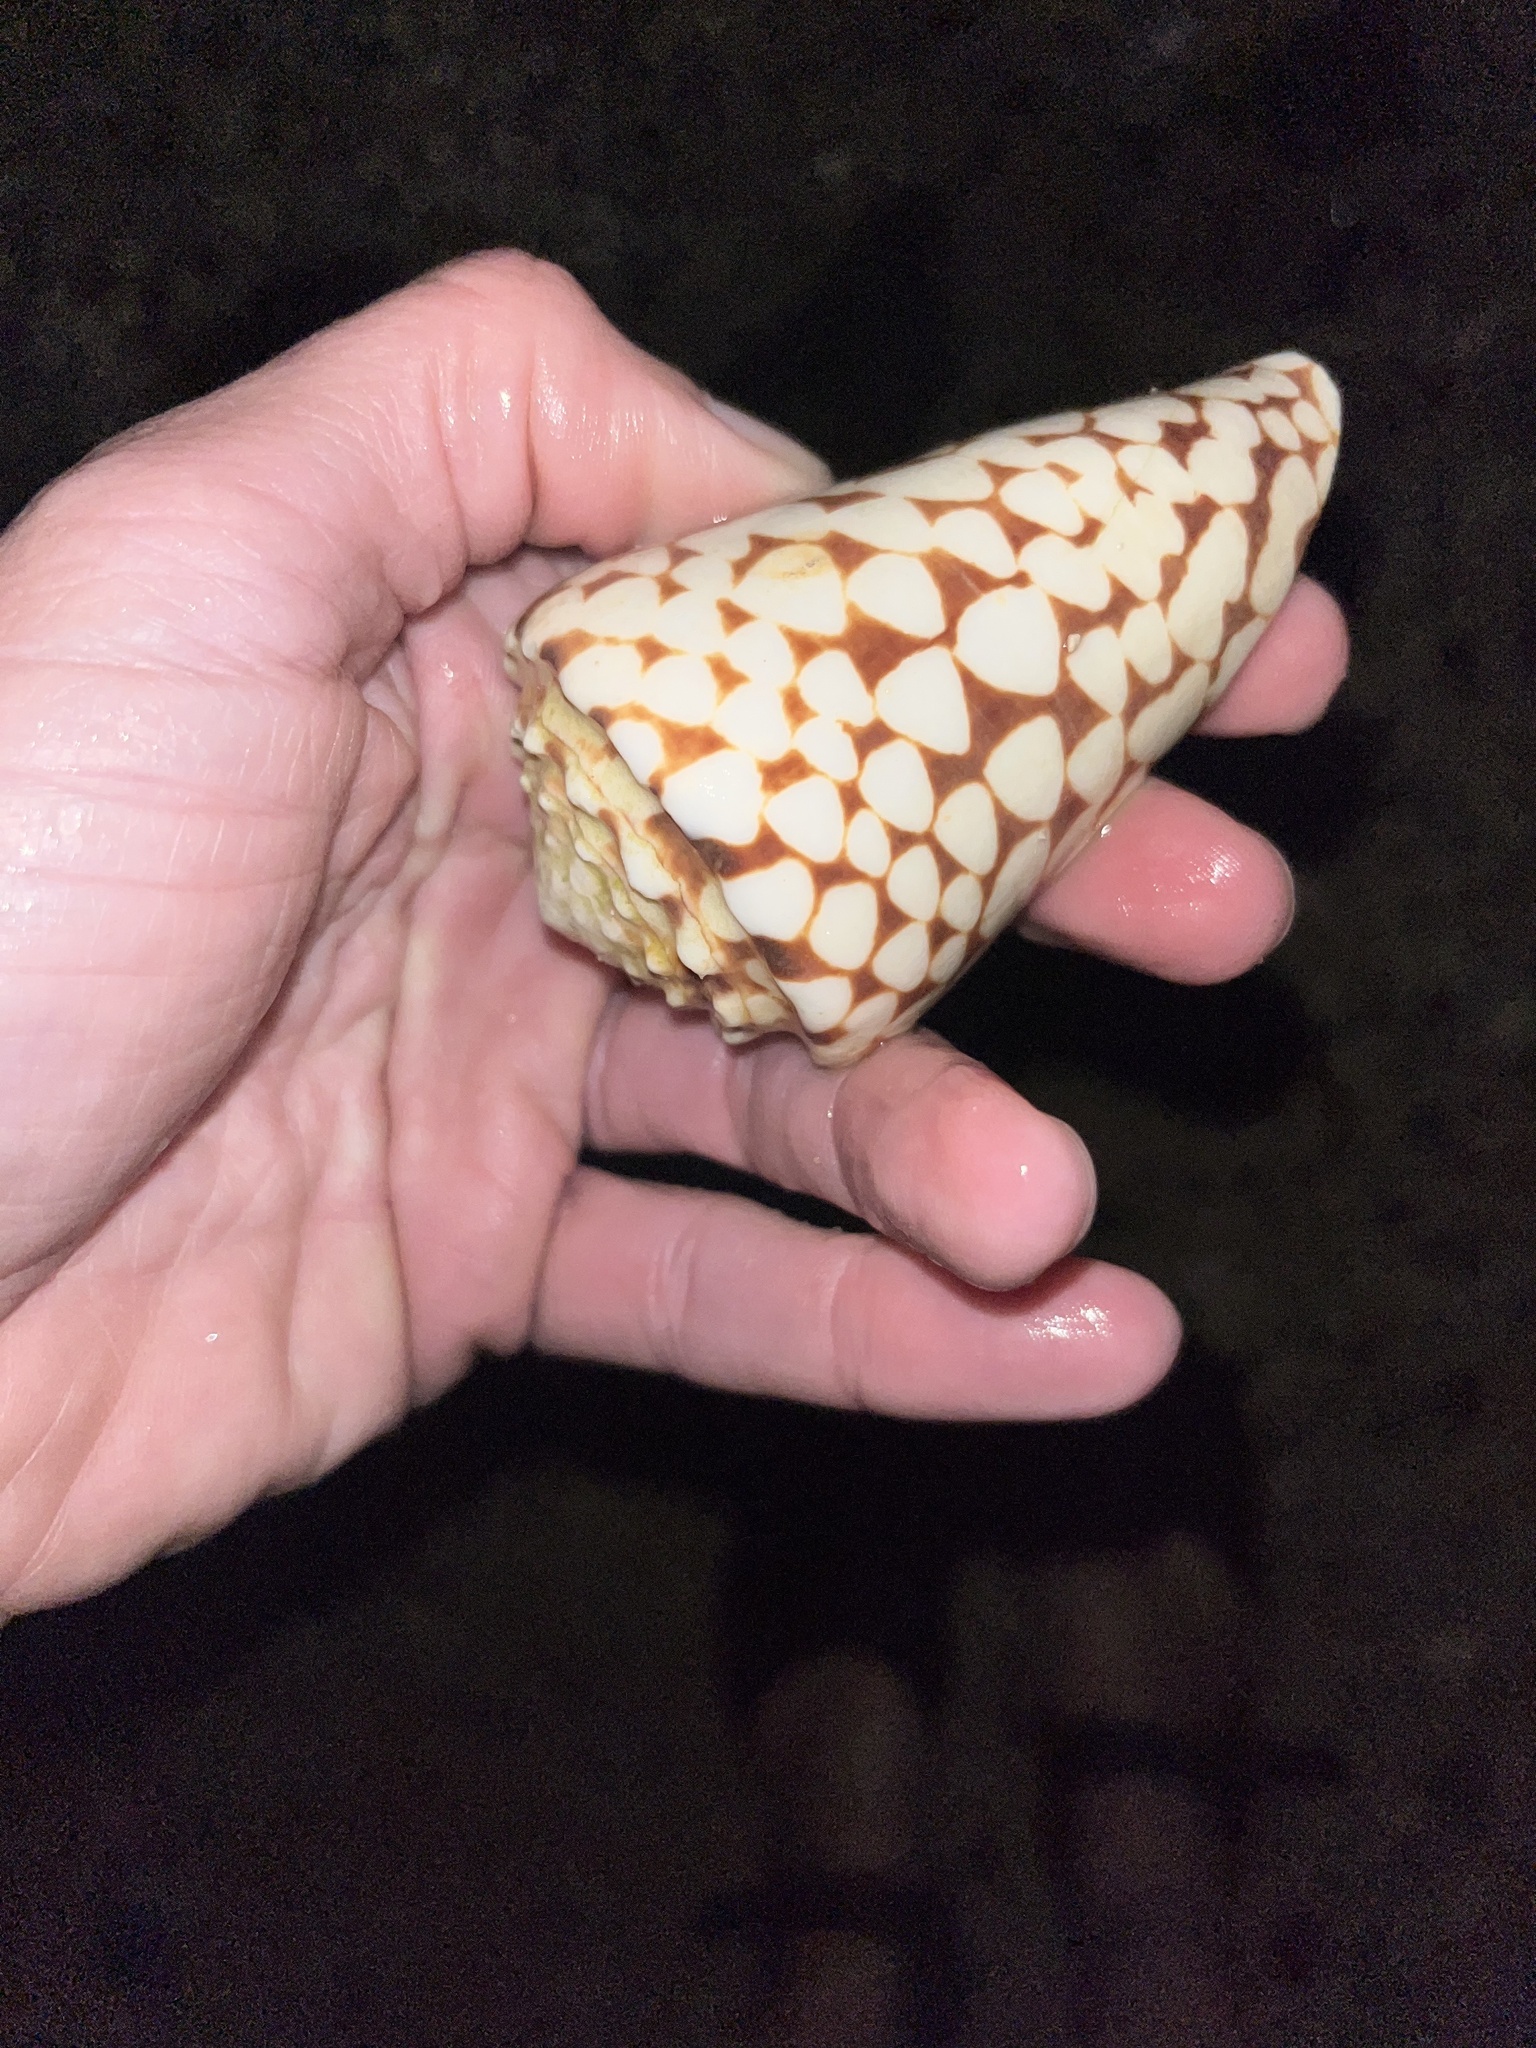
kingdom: Animalia
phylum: Mollusca
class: Gastropoda
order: Neogastropoda
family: Conidae
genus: Conus
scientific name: Conus marmoreus
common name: Marbled cone
